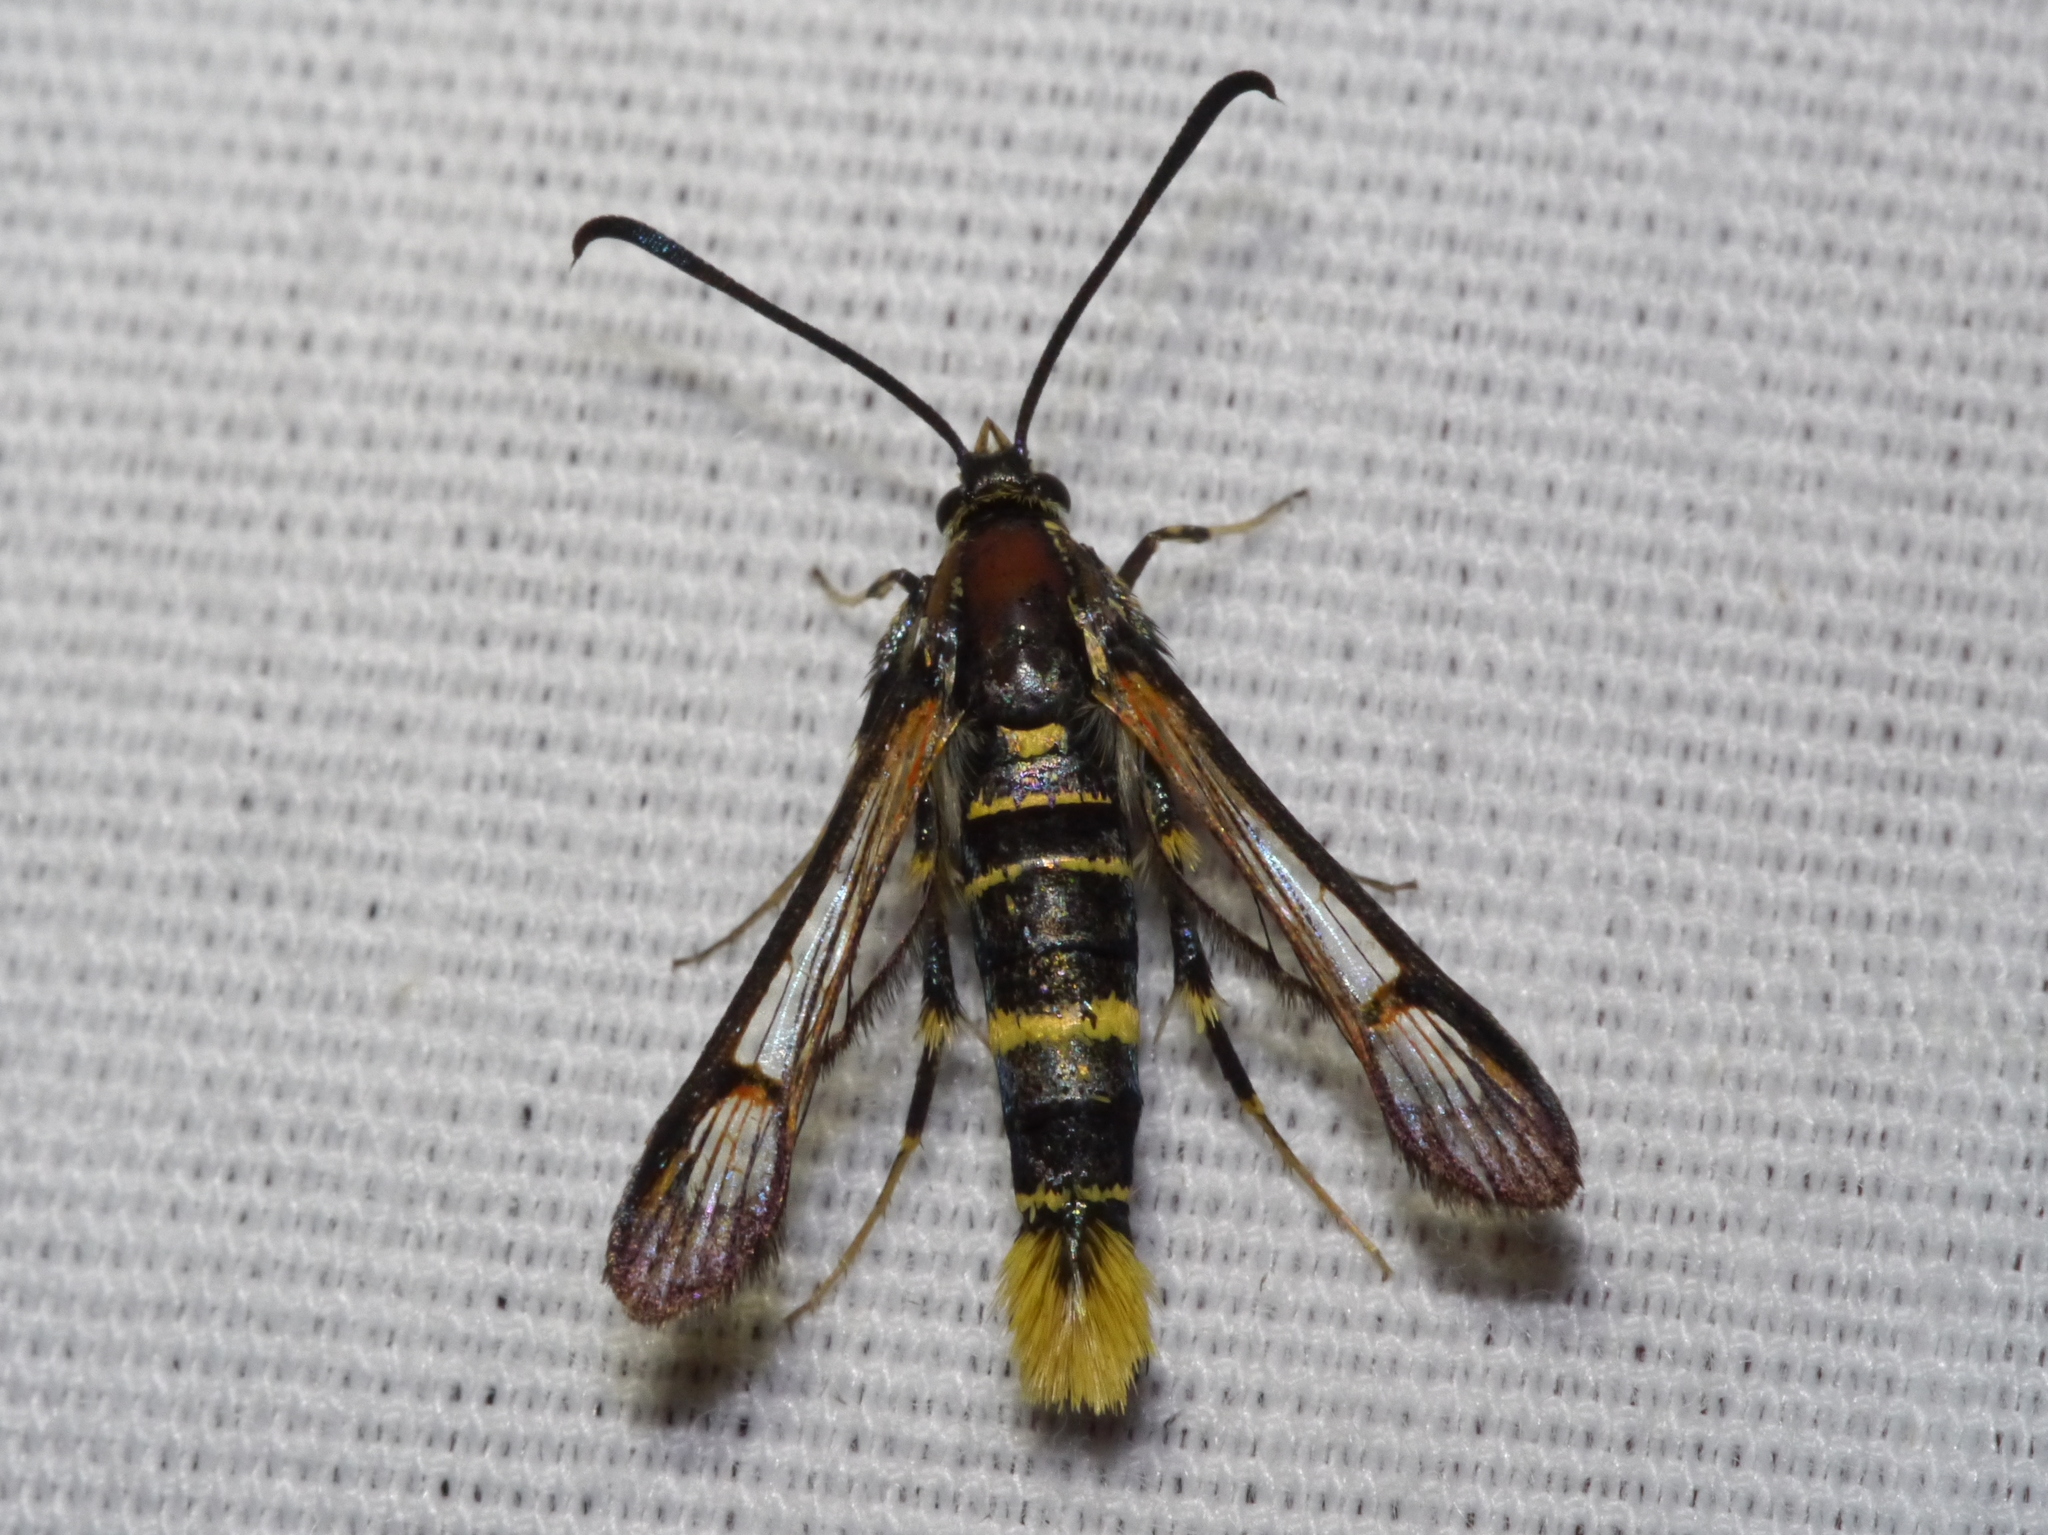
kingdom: Animalia
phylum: Arthropoda
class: Insecta
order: Lepidoptera
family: Sesiidae
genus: Carmenta
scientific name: Carmenta arizonae
